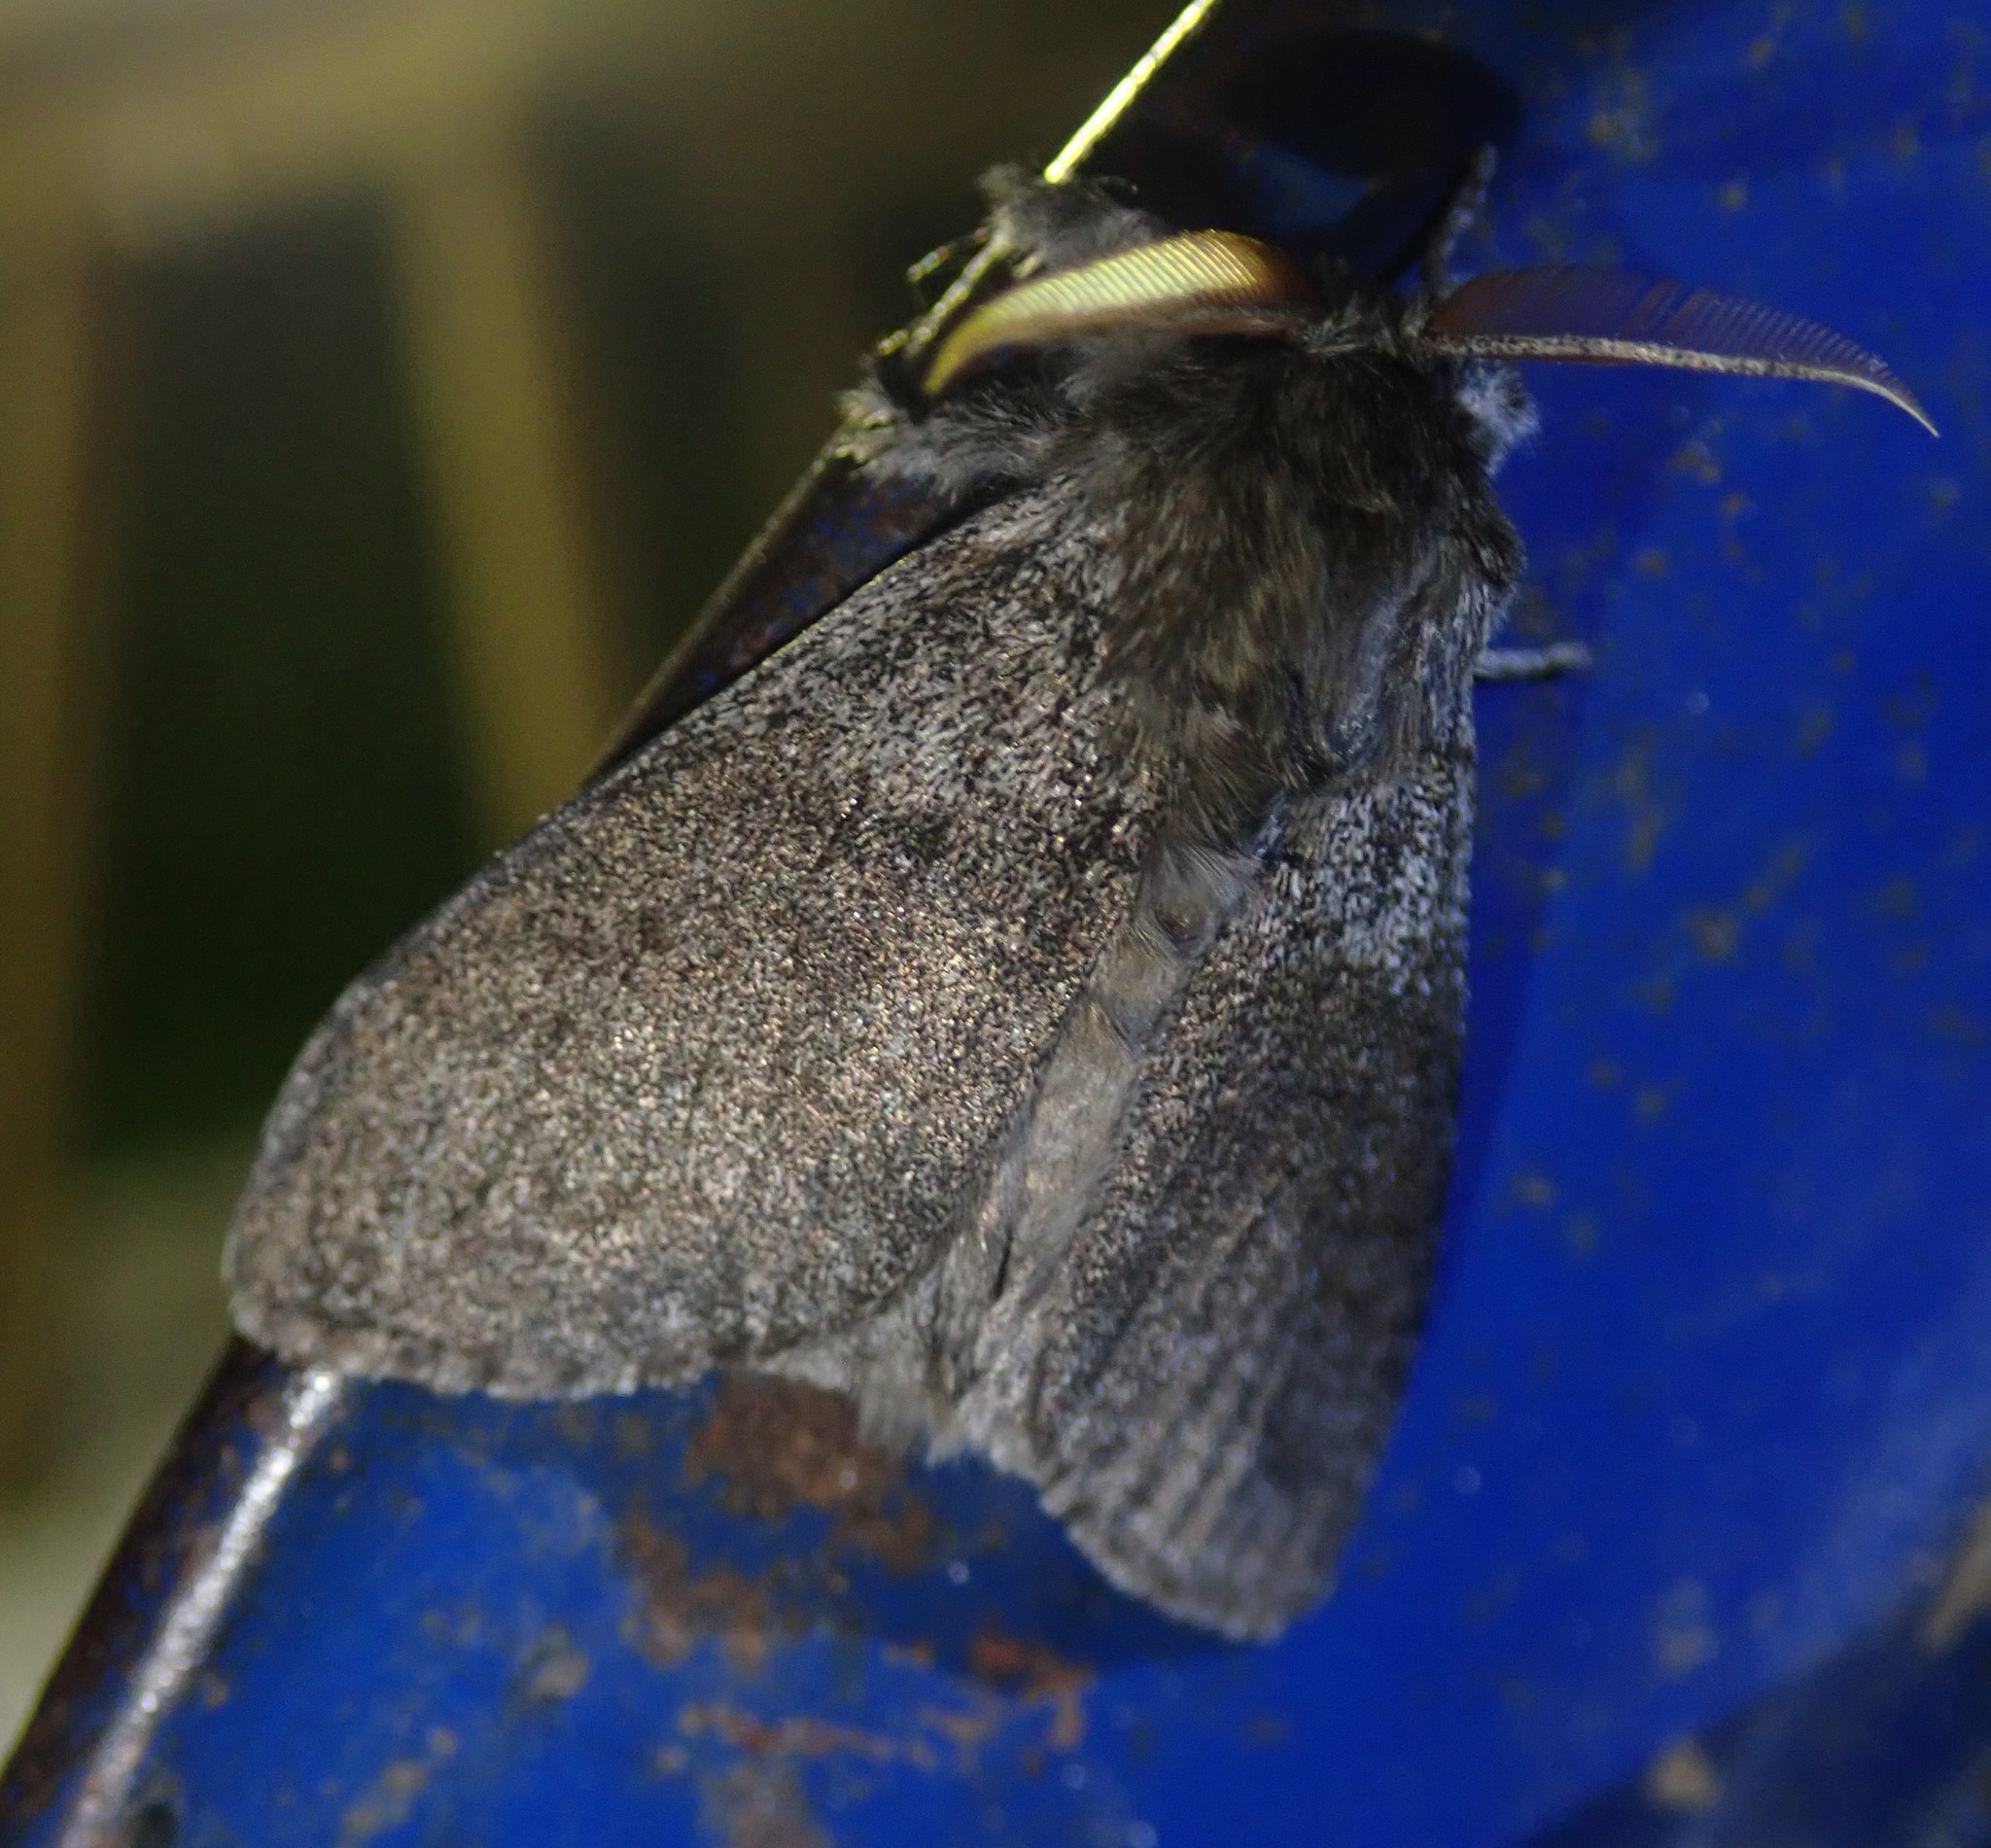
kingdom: Animalia
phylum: Arthropoda
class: Insecta
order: Lepidoptera
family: Erebidae
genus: Calliteara
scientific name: Calliteara pudibunda
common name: Pale tussock
